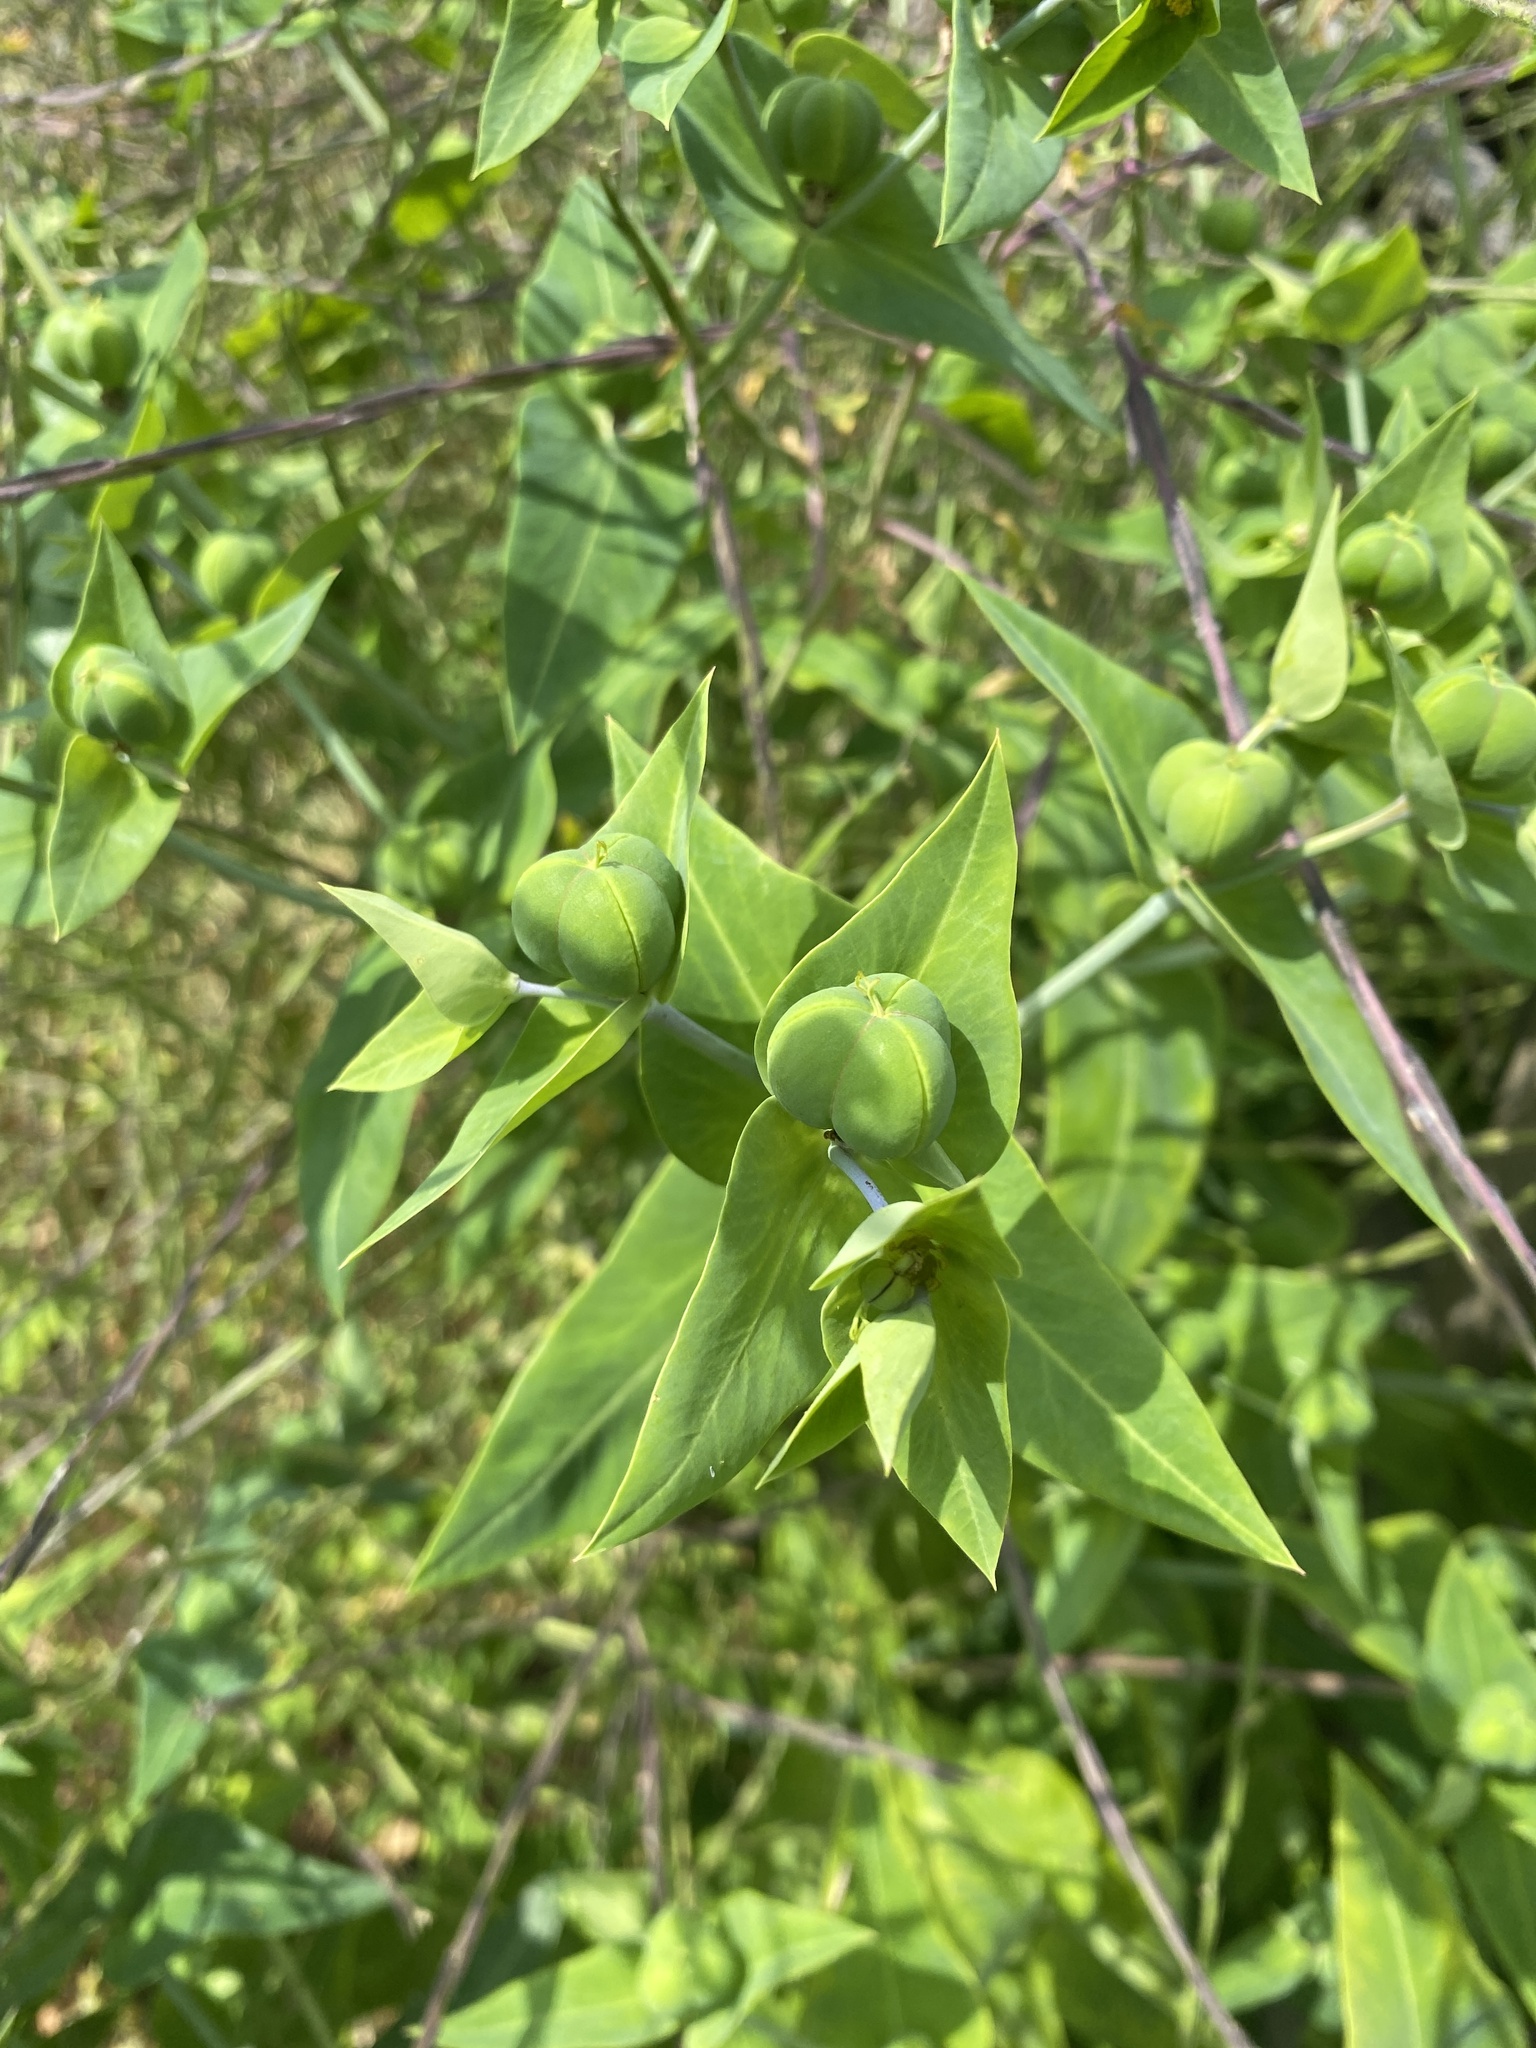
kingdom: Plantae
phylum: Tracheophyta
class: Magnoliopsida
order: Malpighiales
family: Euphorbiaceae
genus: Euphorbia
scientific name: Euphorbia lathyris
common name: Caper spurge
